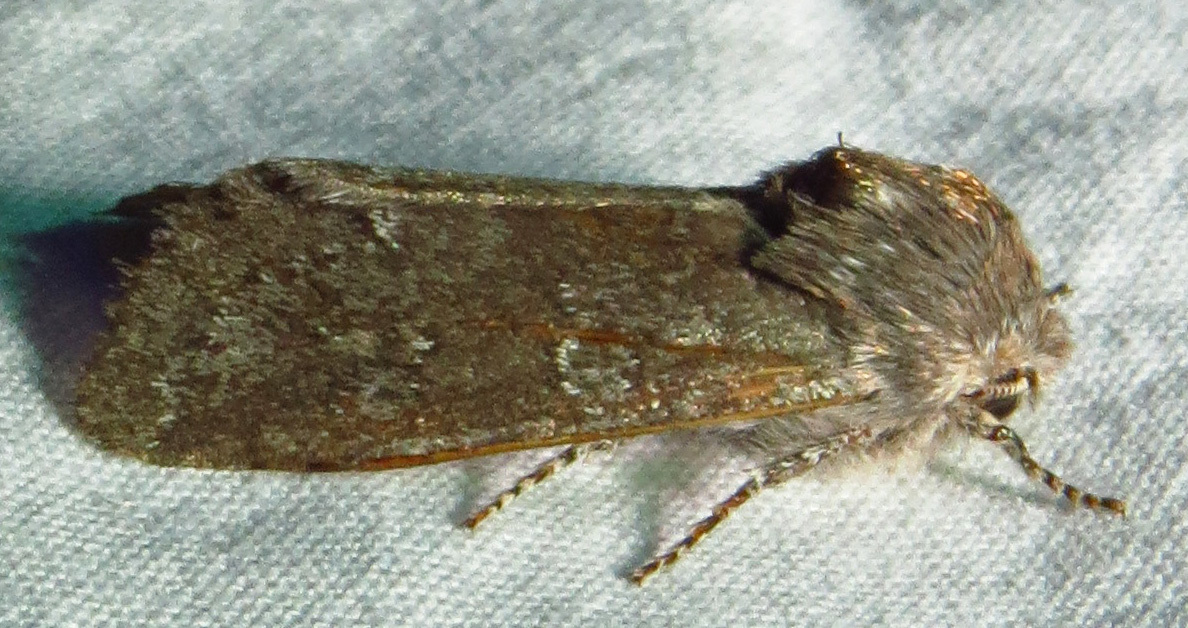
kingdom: Animalia
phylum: Arthropoda
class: Insecta
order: Lepidoptera
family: Noctuidae
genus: Psaphida
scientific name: Psaphida rolandi
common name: Roland's sallow
